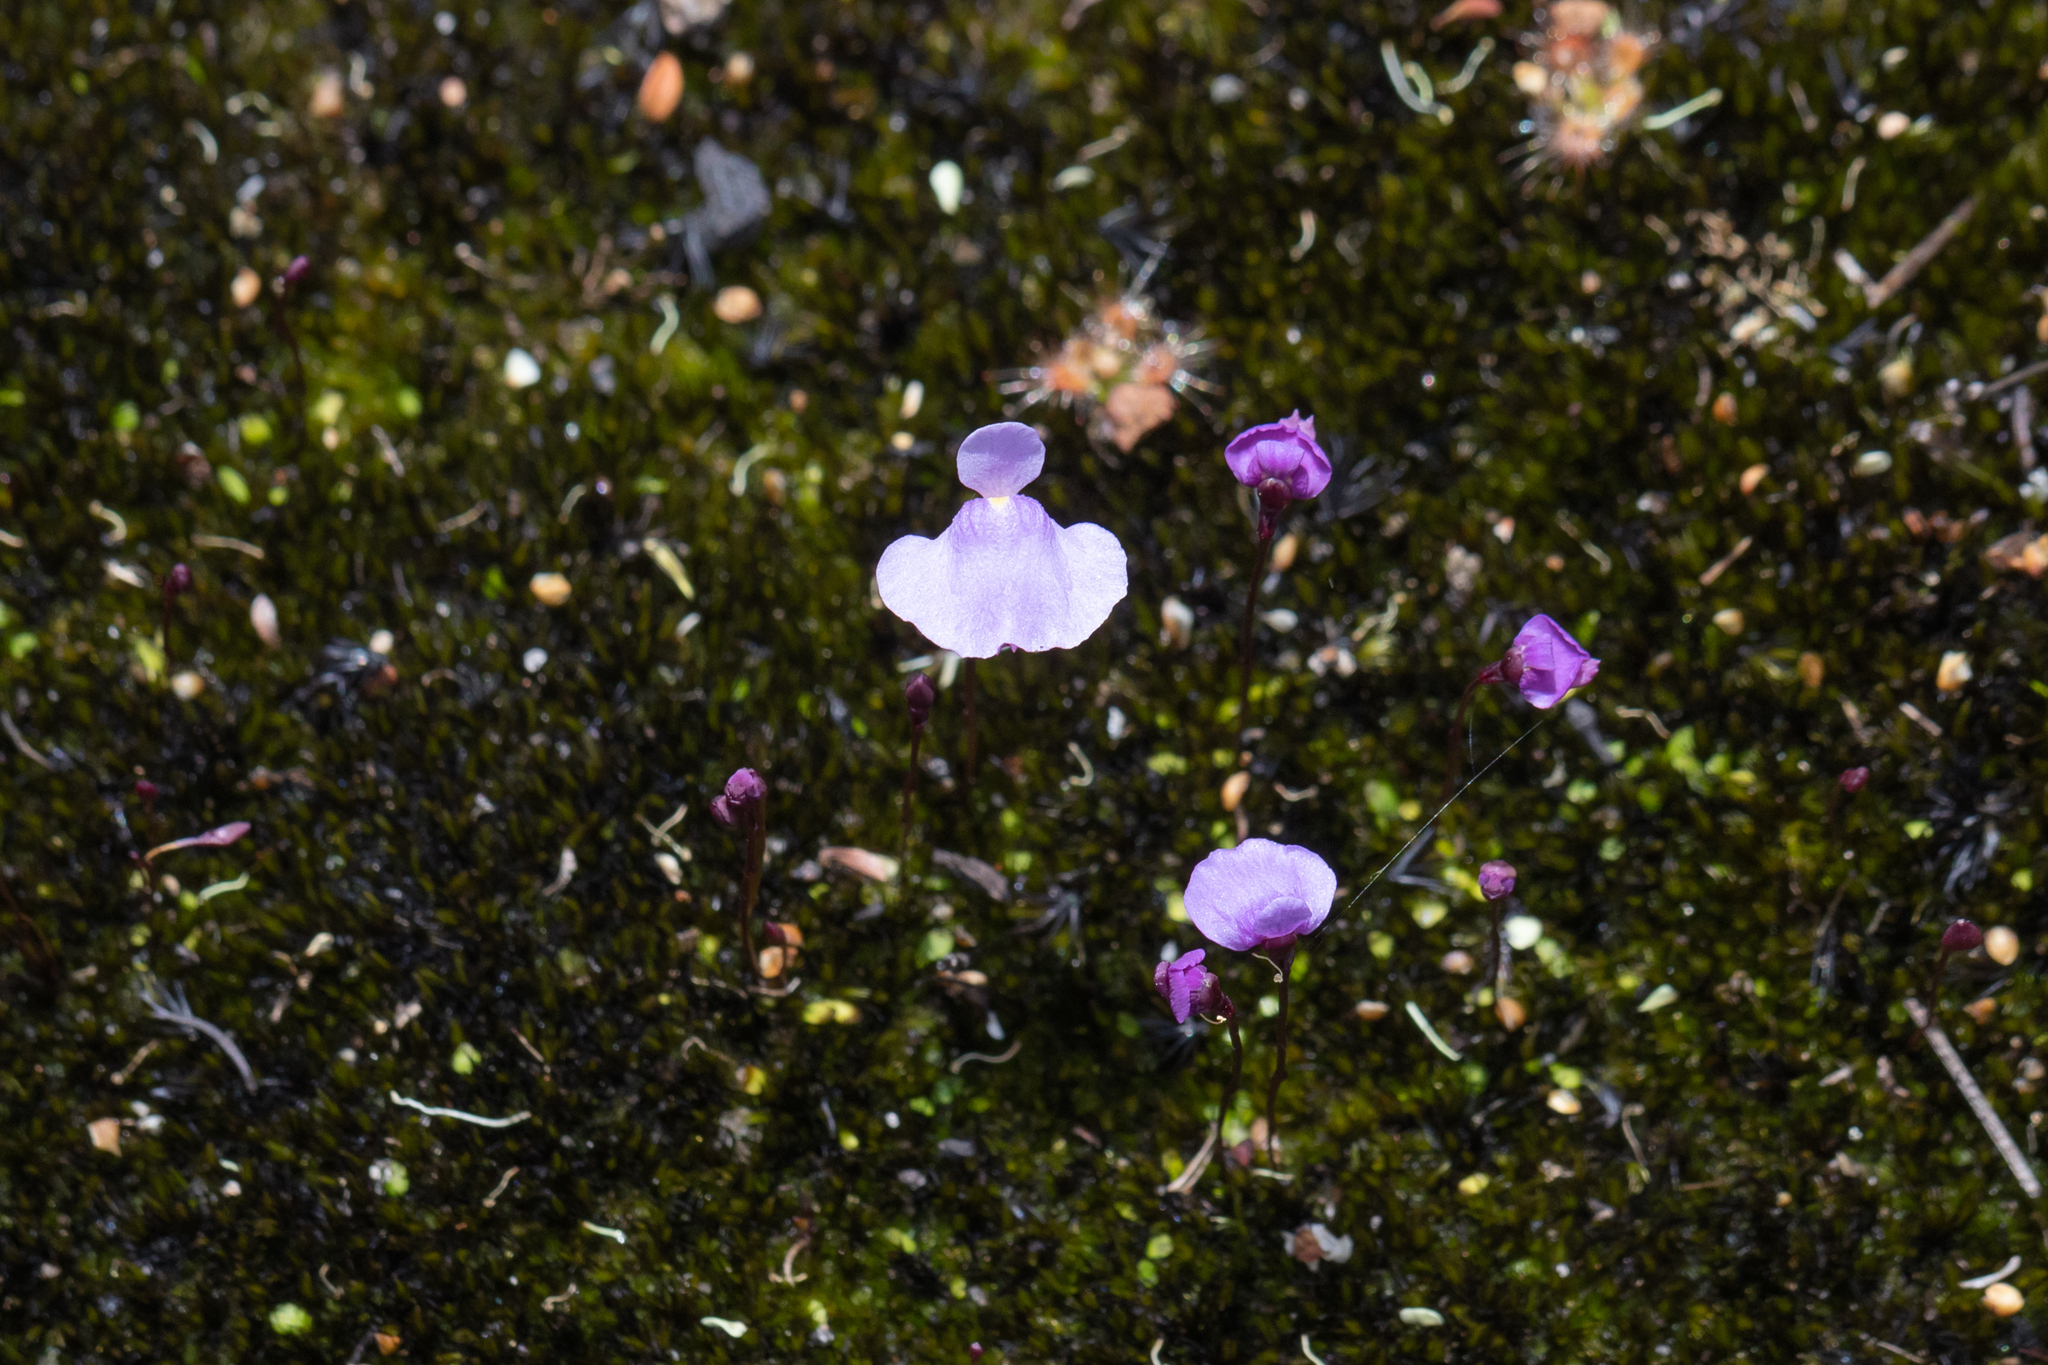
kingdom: Plantae
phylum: Tracheophyta
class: Magnoliopsida
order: Lamiales
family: Lentibulariaceae
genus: Utricularia
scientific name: Utricularia simplex
